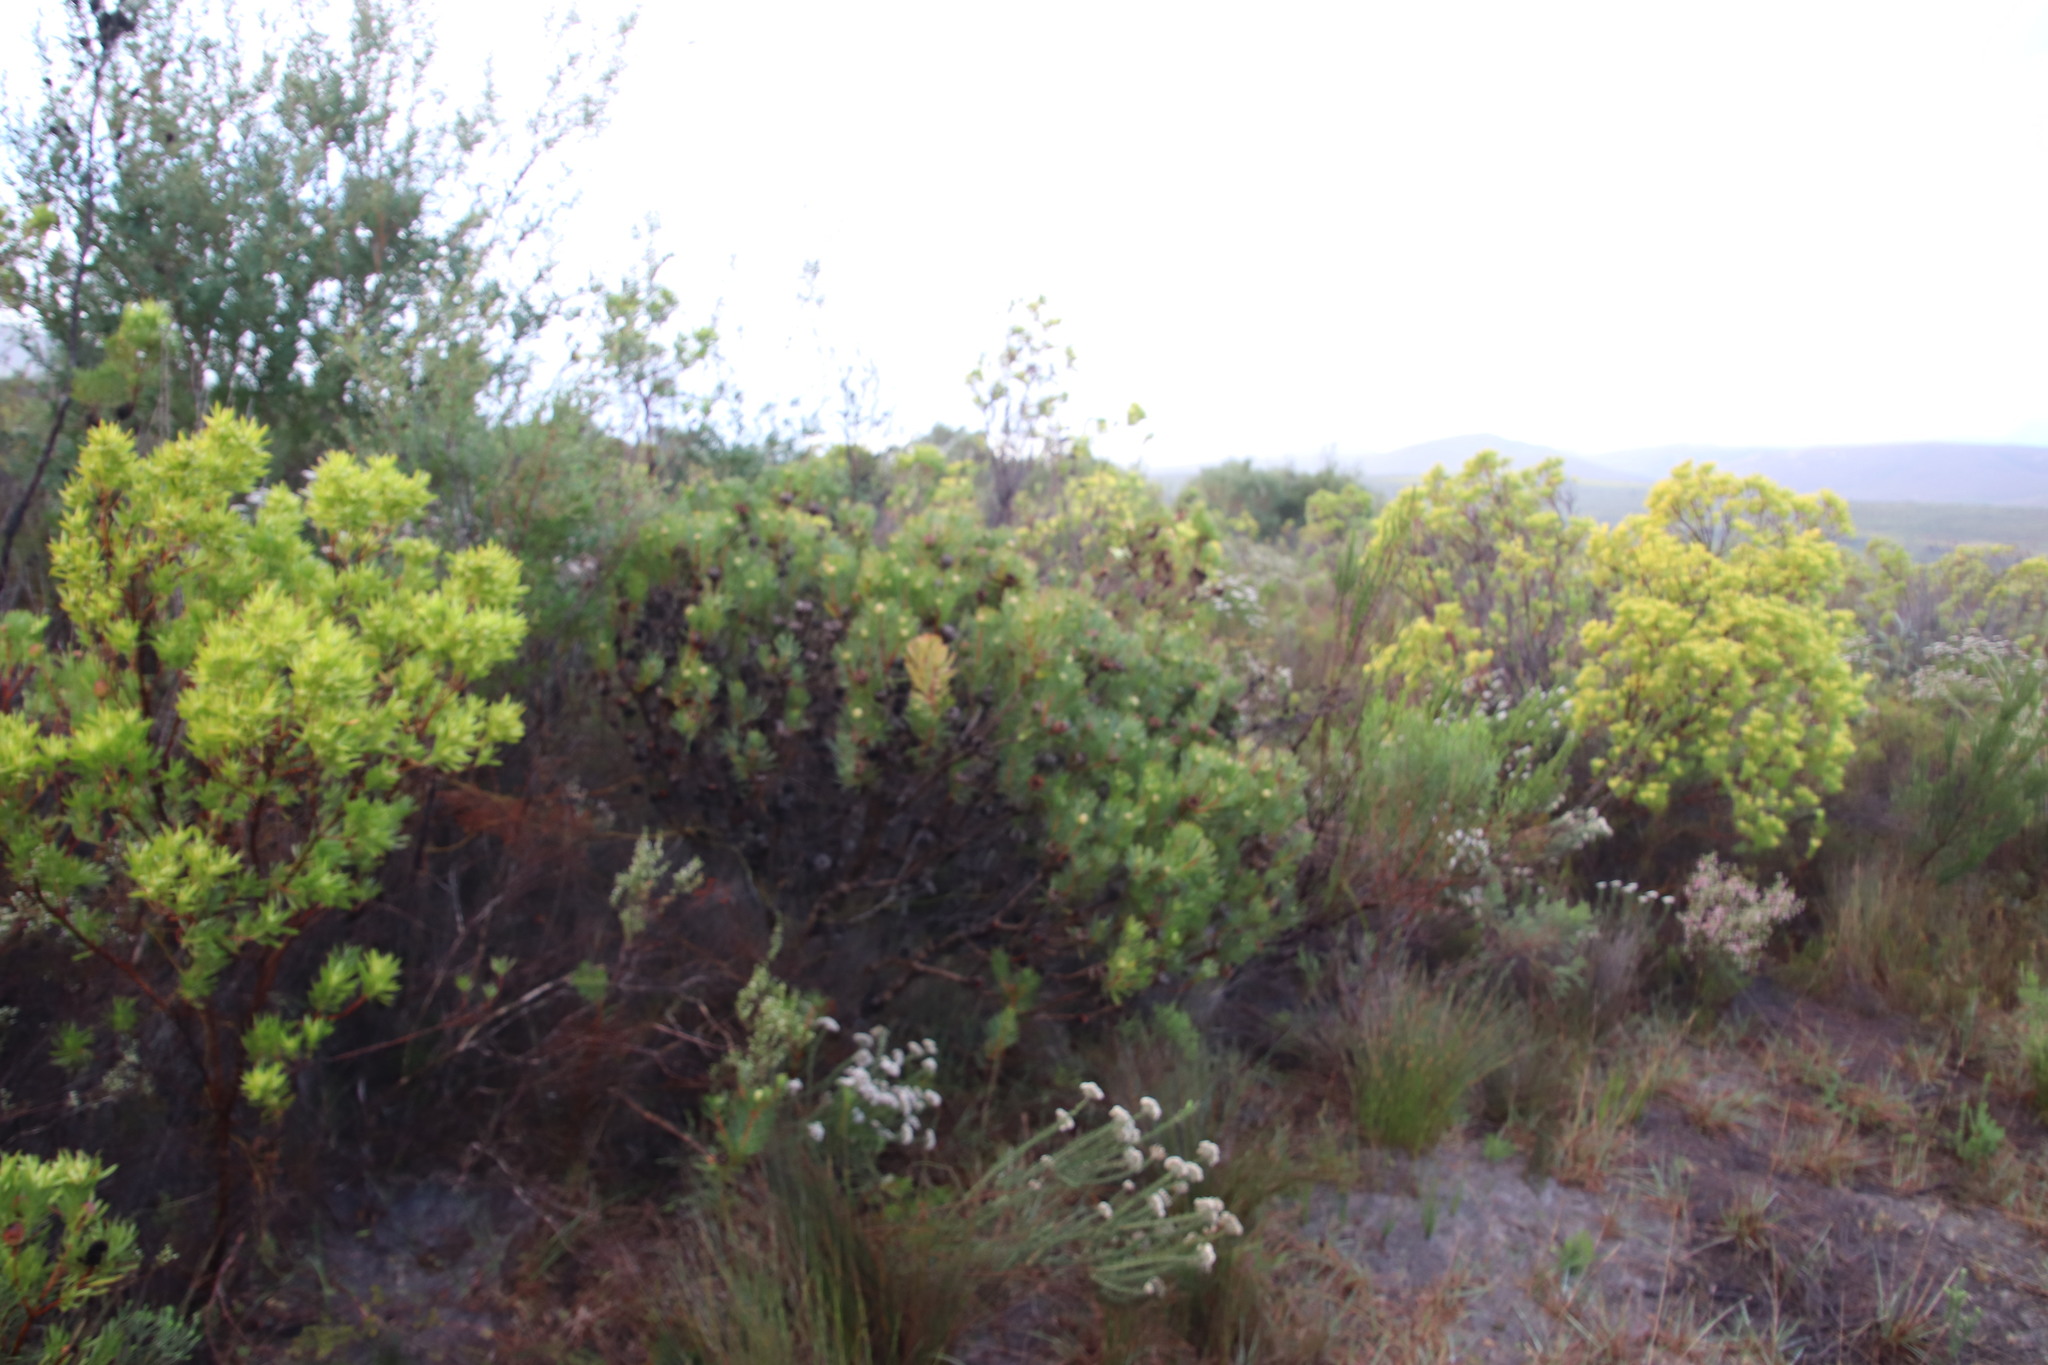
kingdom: Plantae
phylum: Tracheophyta
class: Magnoliopsida
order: Proteales
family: Proteaceae
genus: Protea
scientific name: Protea scolymocephala
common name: Thistle sugarbush
